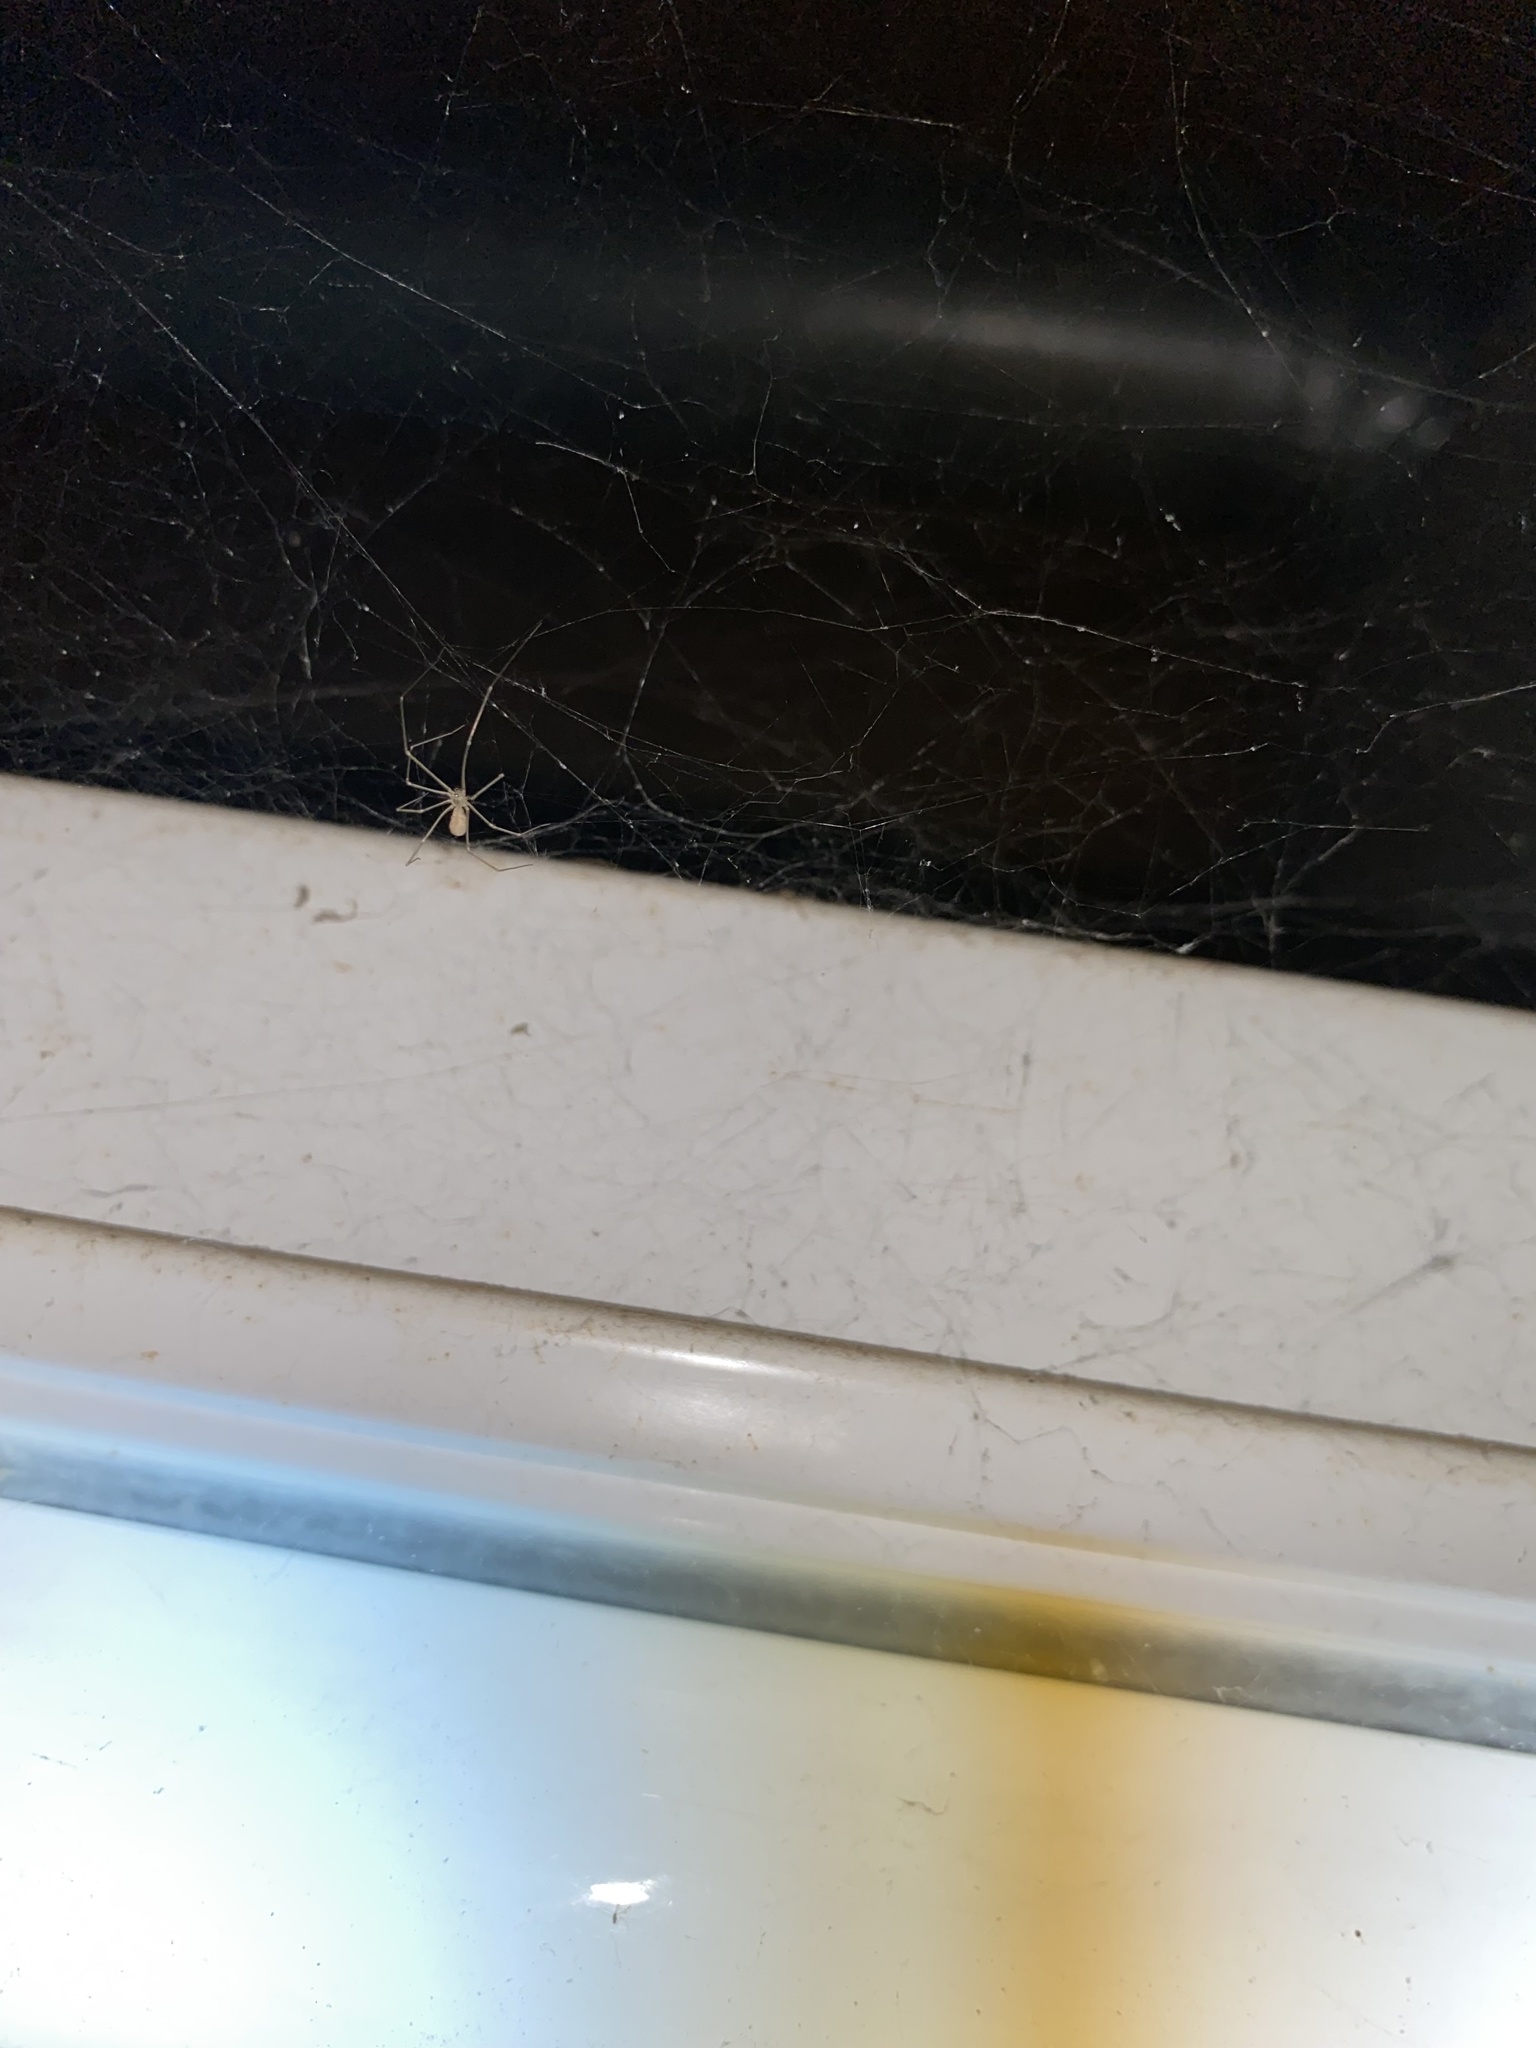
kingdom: Animalia
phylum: Arthropoda
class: Arachnida
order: Araneae
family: Pholcidae
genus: Pholcus
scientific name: Pholcus phalangioides
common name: Longbodied cellar spider
